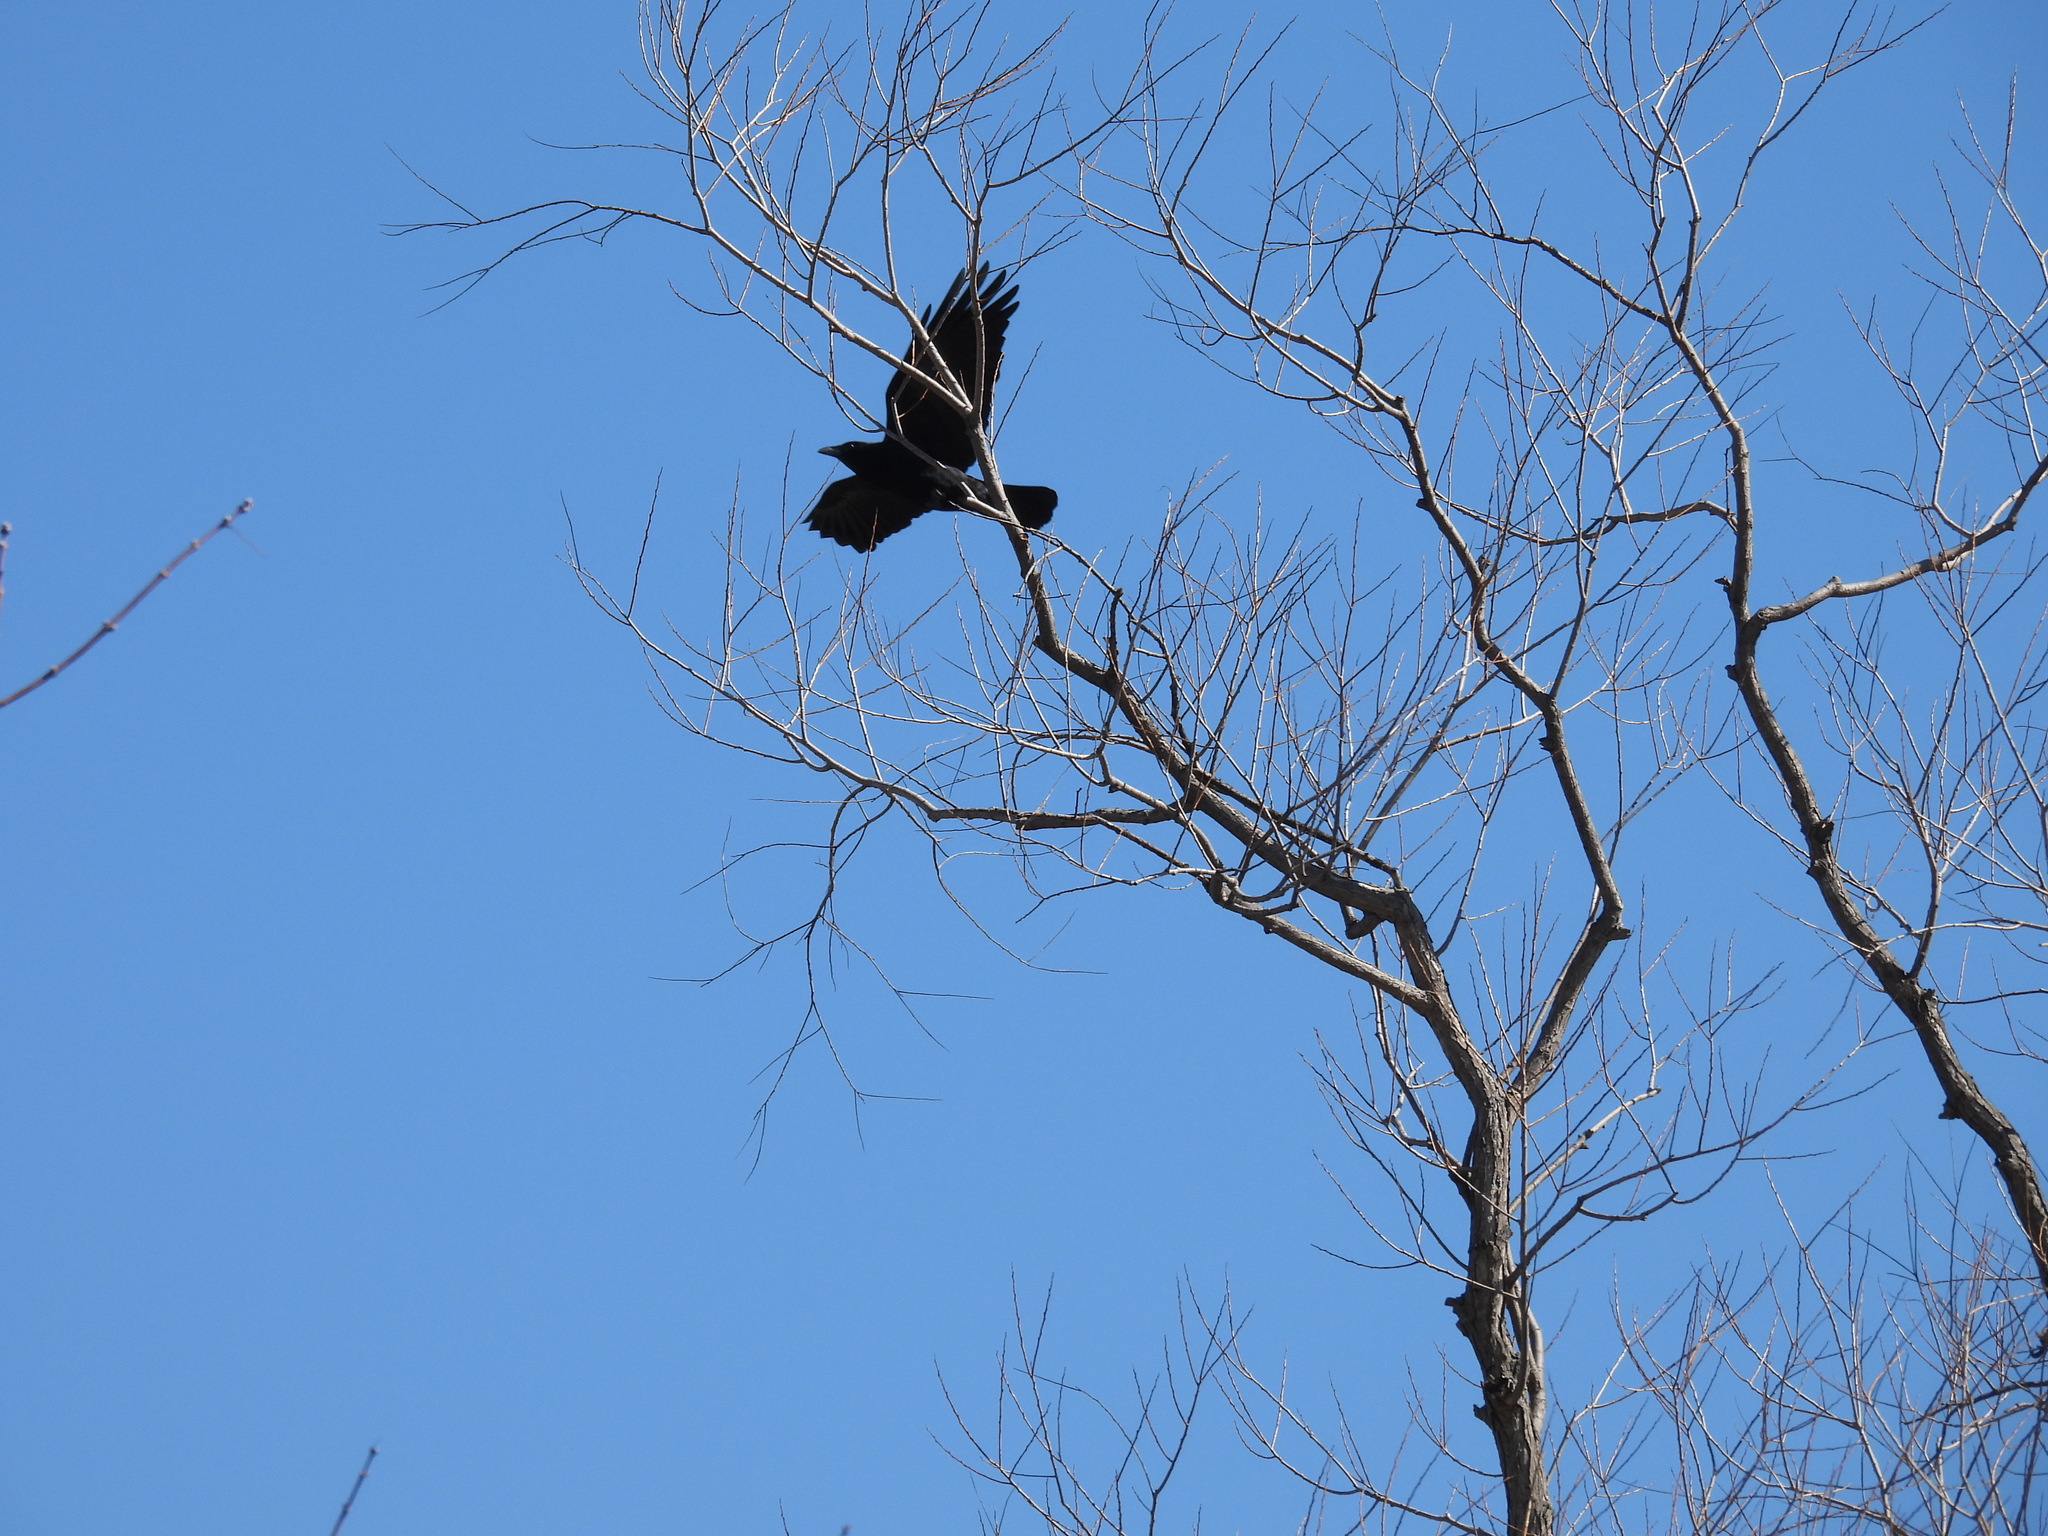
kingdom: Animalia
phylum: Chordata
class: Aves
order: Passeriformes
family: Corvidae
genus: Corvus
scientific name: Corvus brachyrhynchos
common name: American crow
